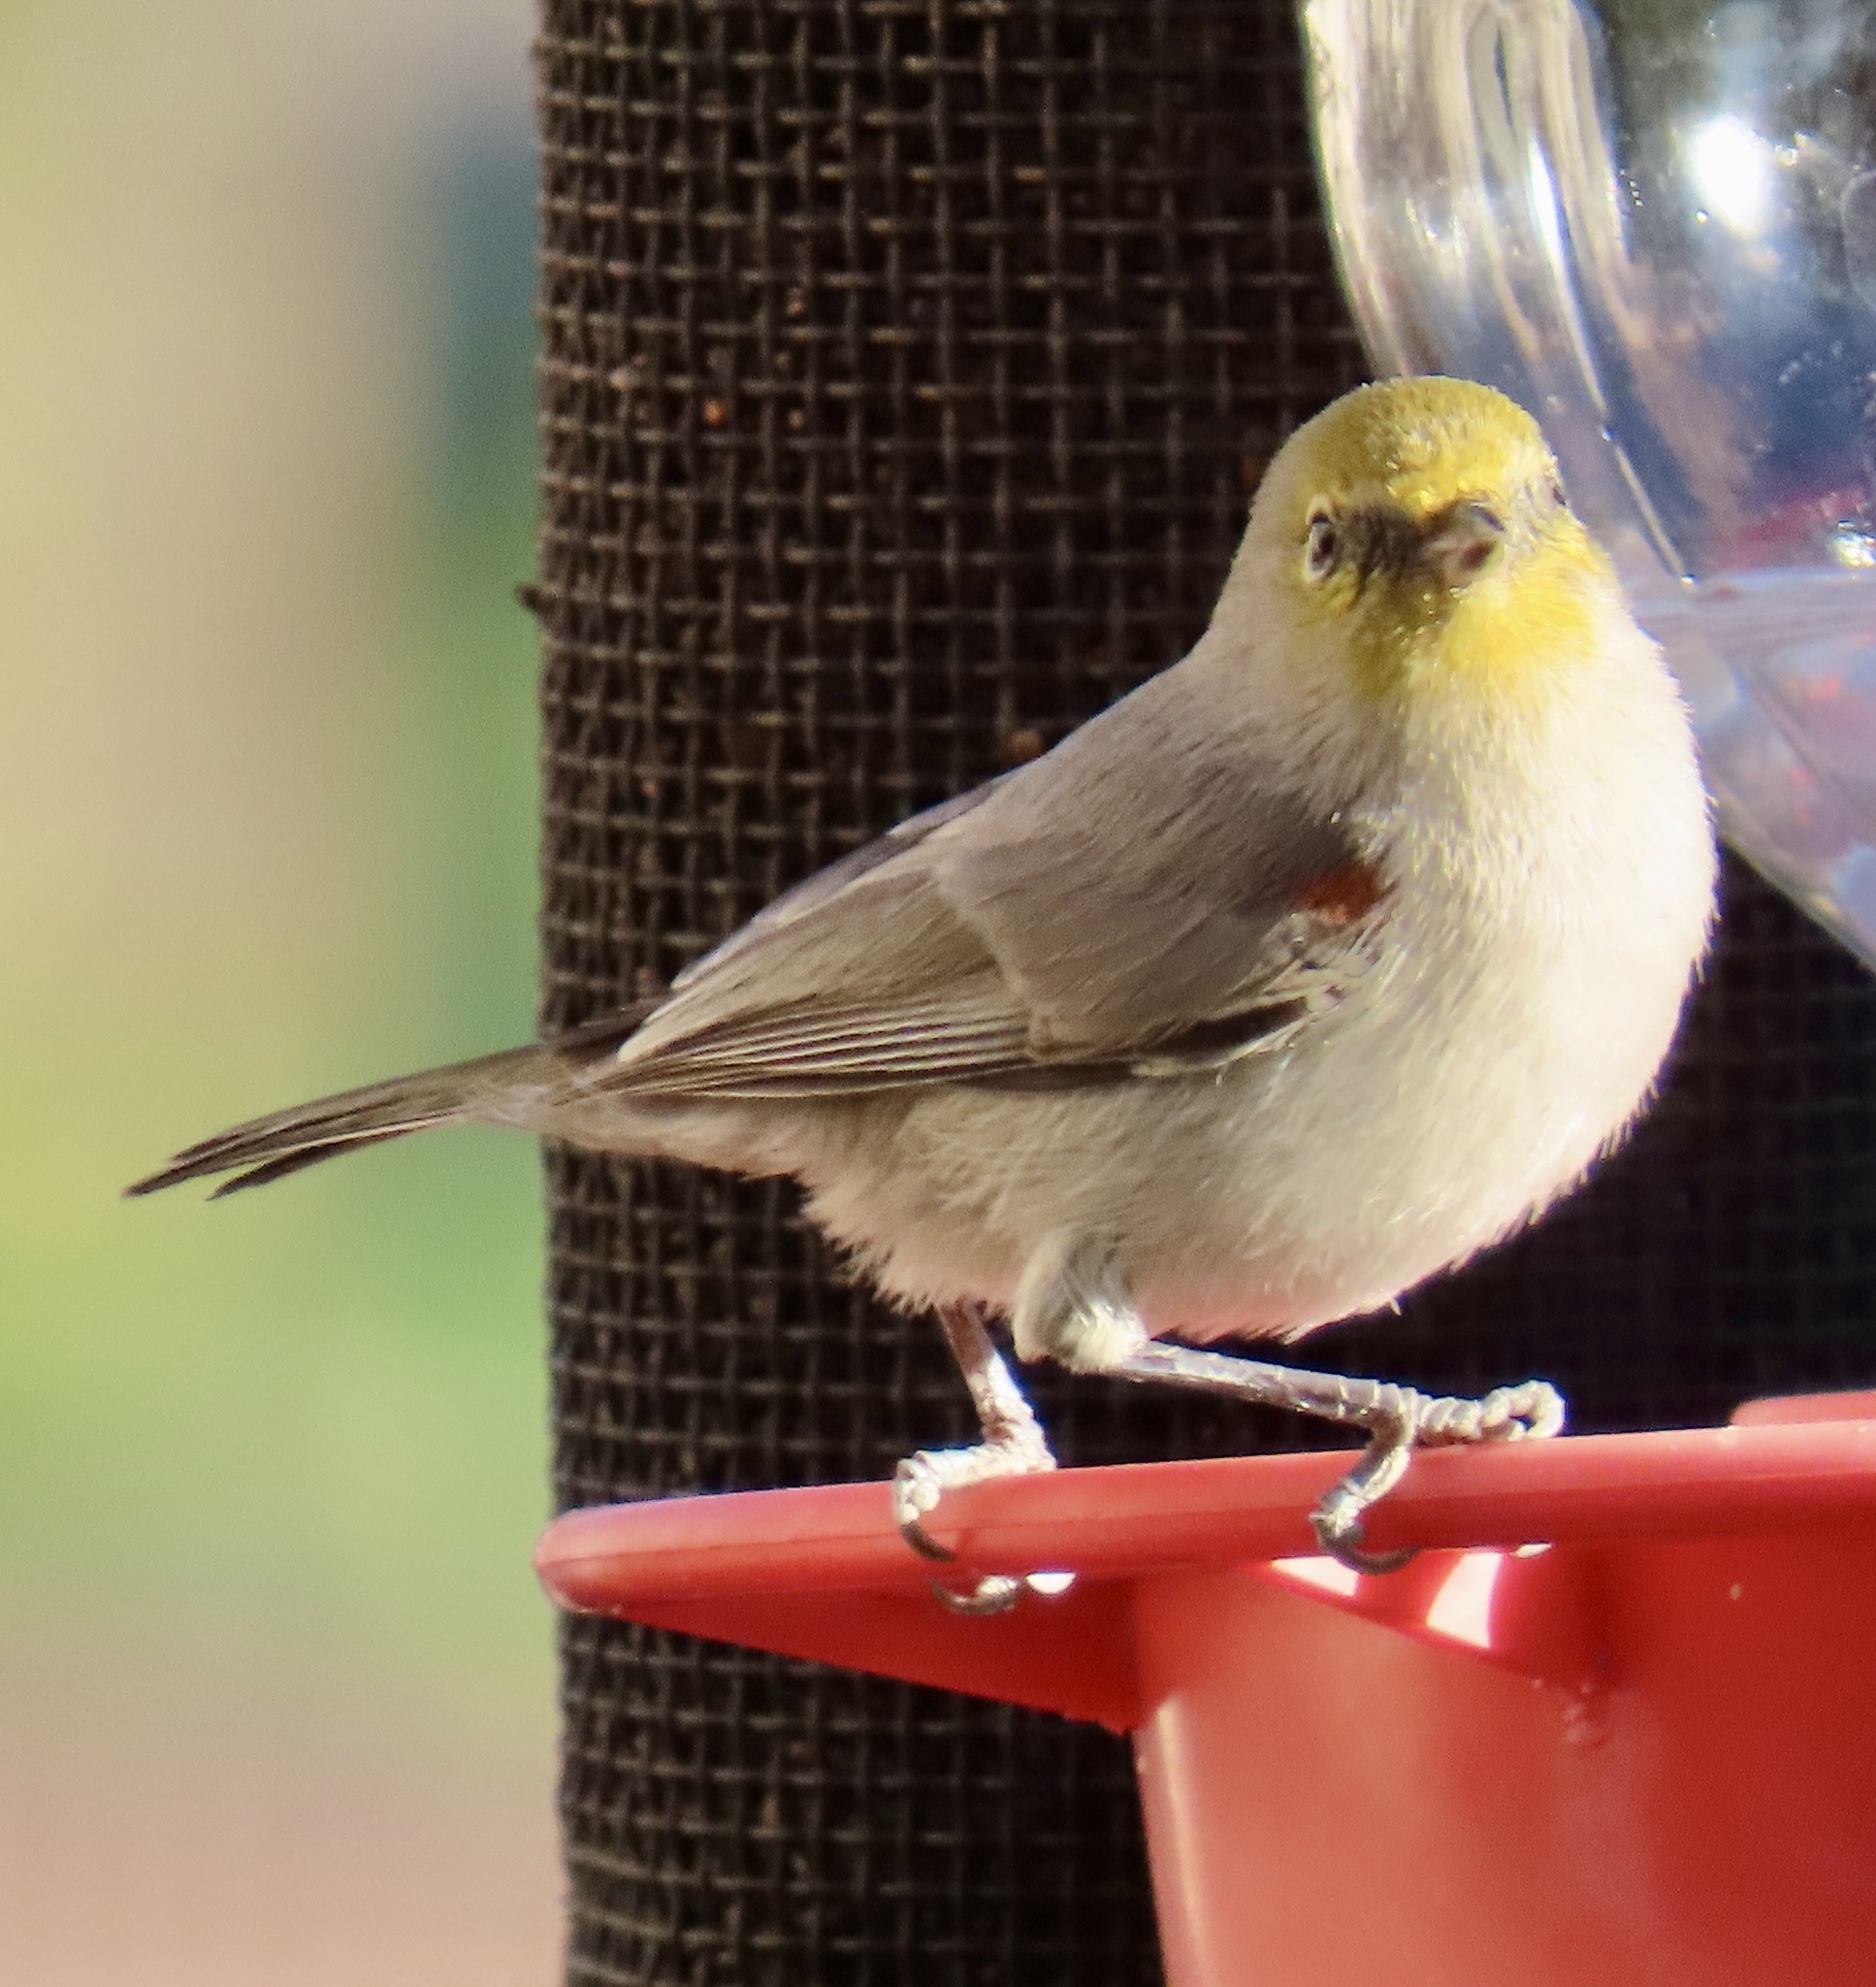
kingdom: Animalia
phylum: Chordata
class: Aves
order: Passeriformes
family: Remizidae
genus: Auriparus
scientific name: Auriparus flaviceps
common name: Verdin
